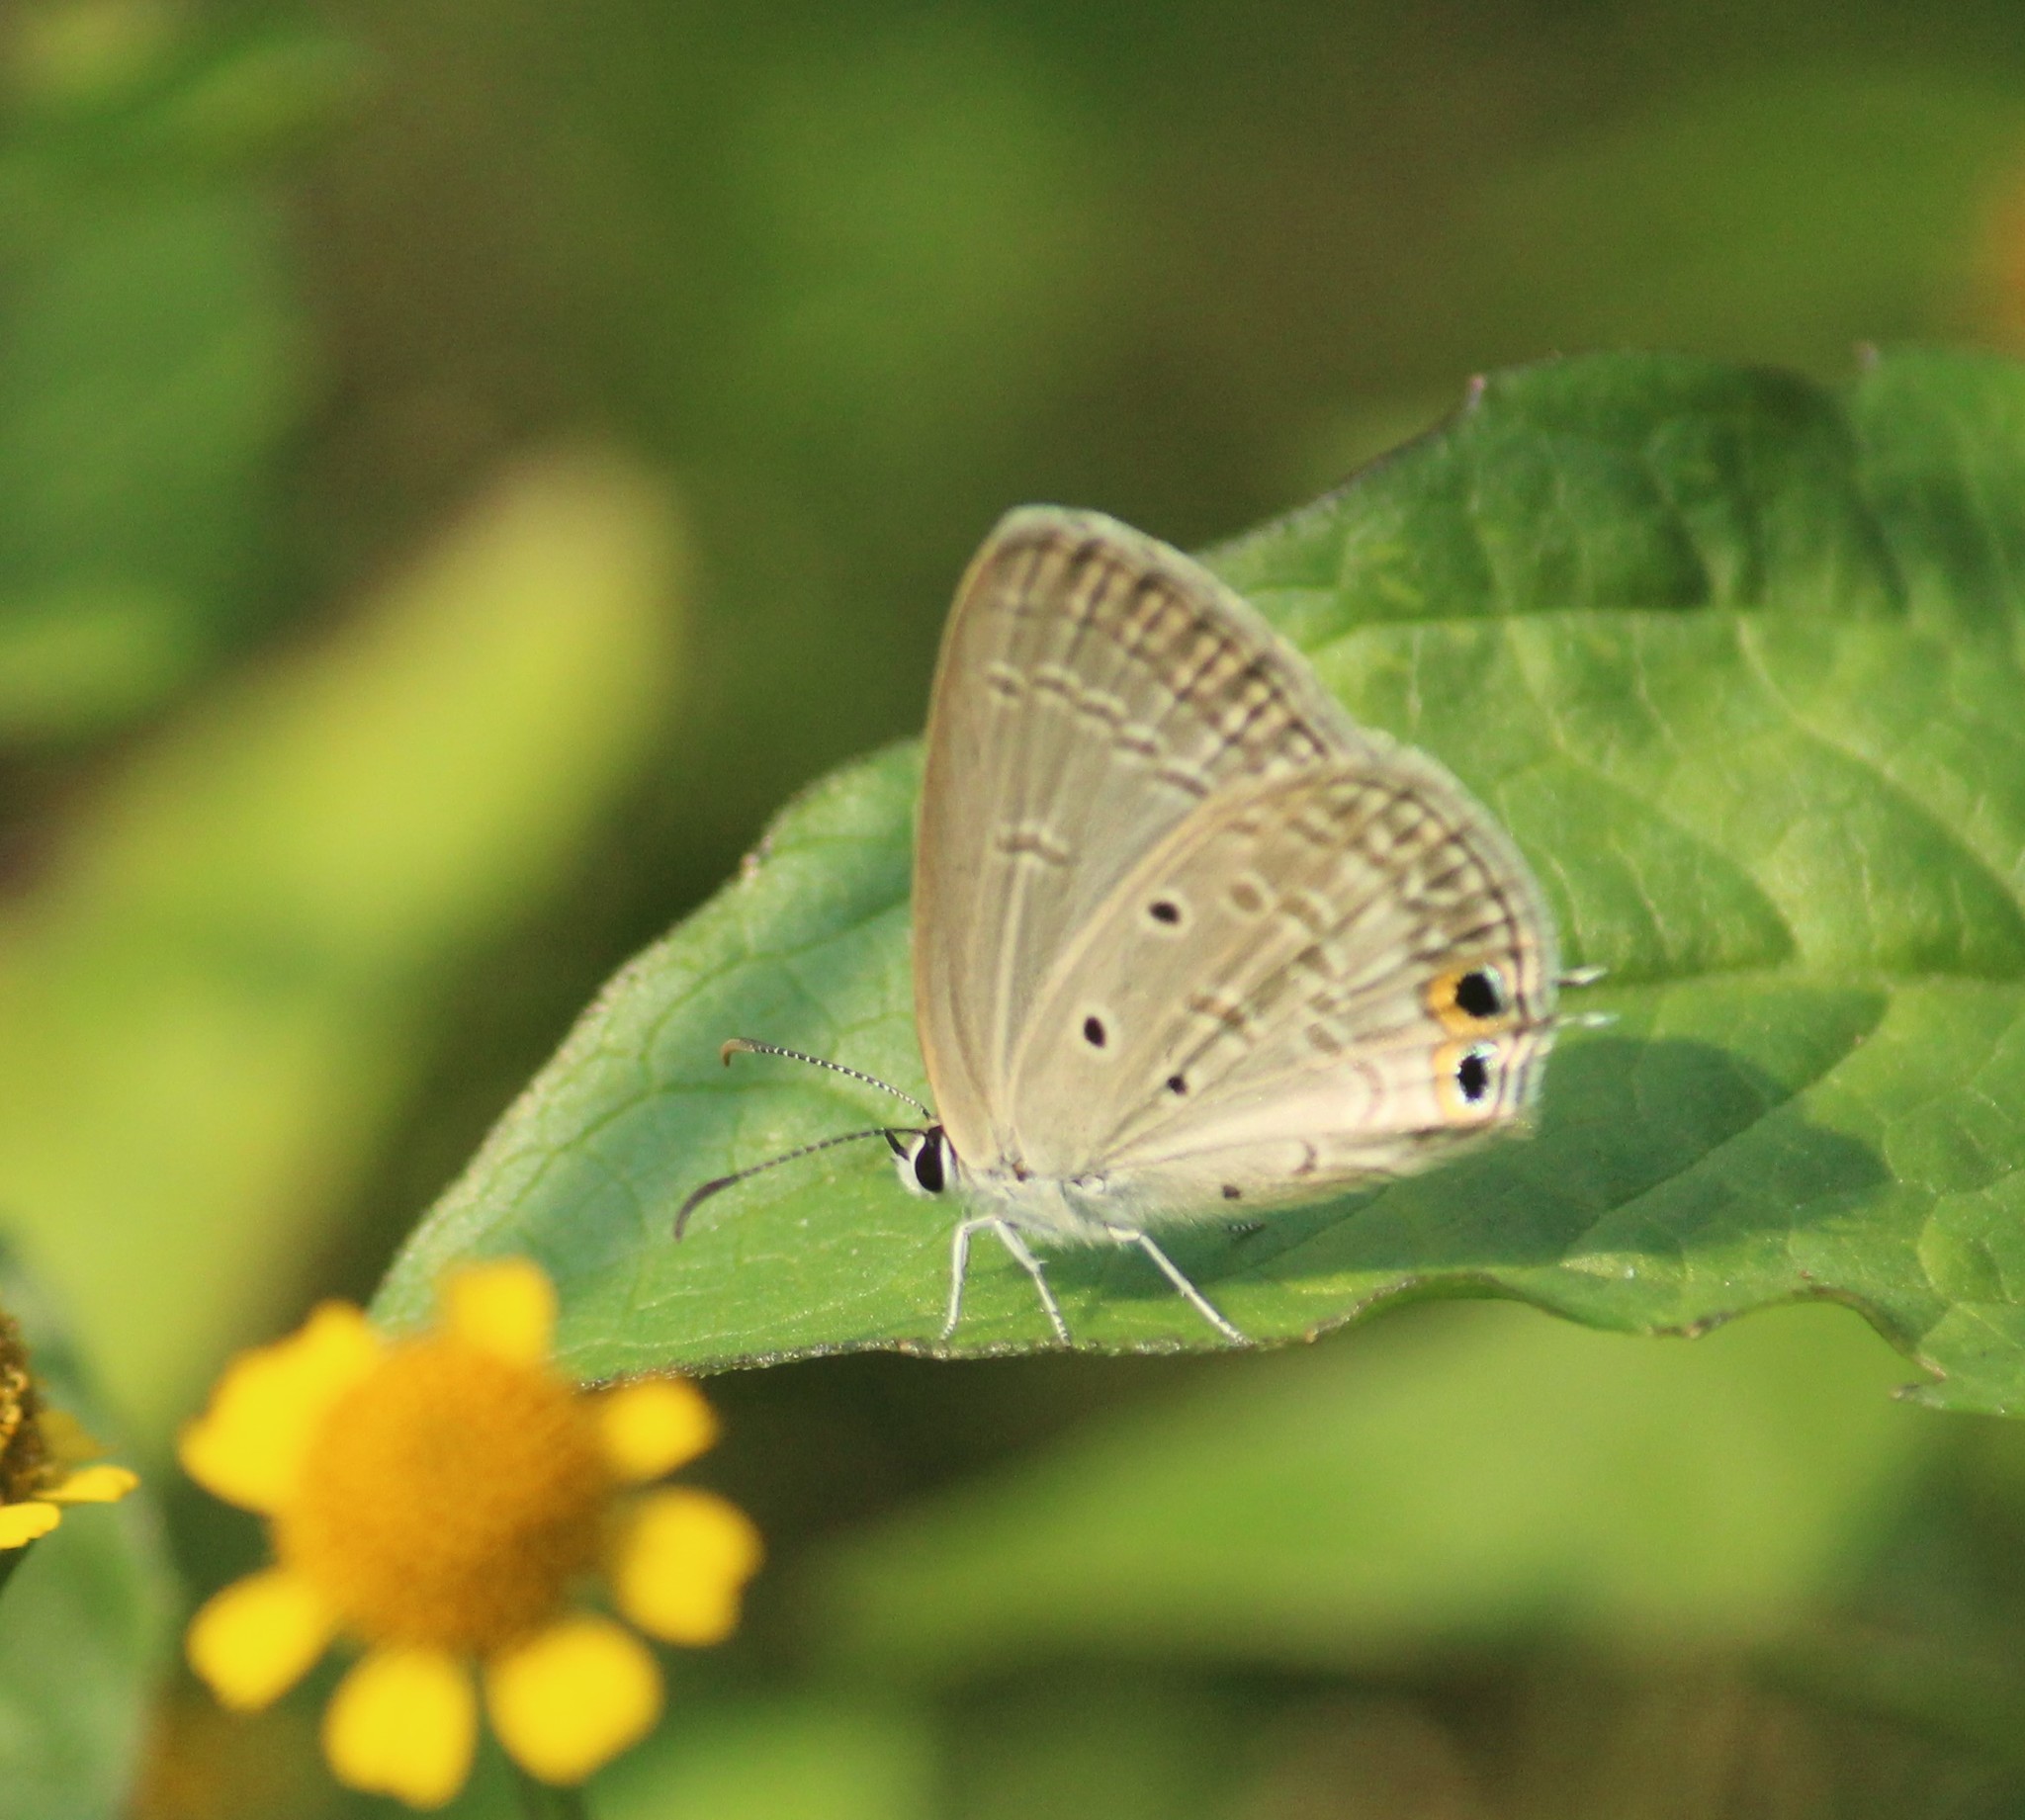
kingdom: Animalia
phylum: Arthropoda
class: Insecta
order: Lepidoptera
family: Lycaenidae
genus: Euchrysops
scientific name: Euchrysops cnejus
